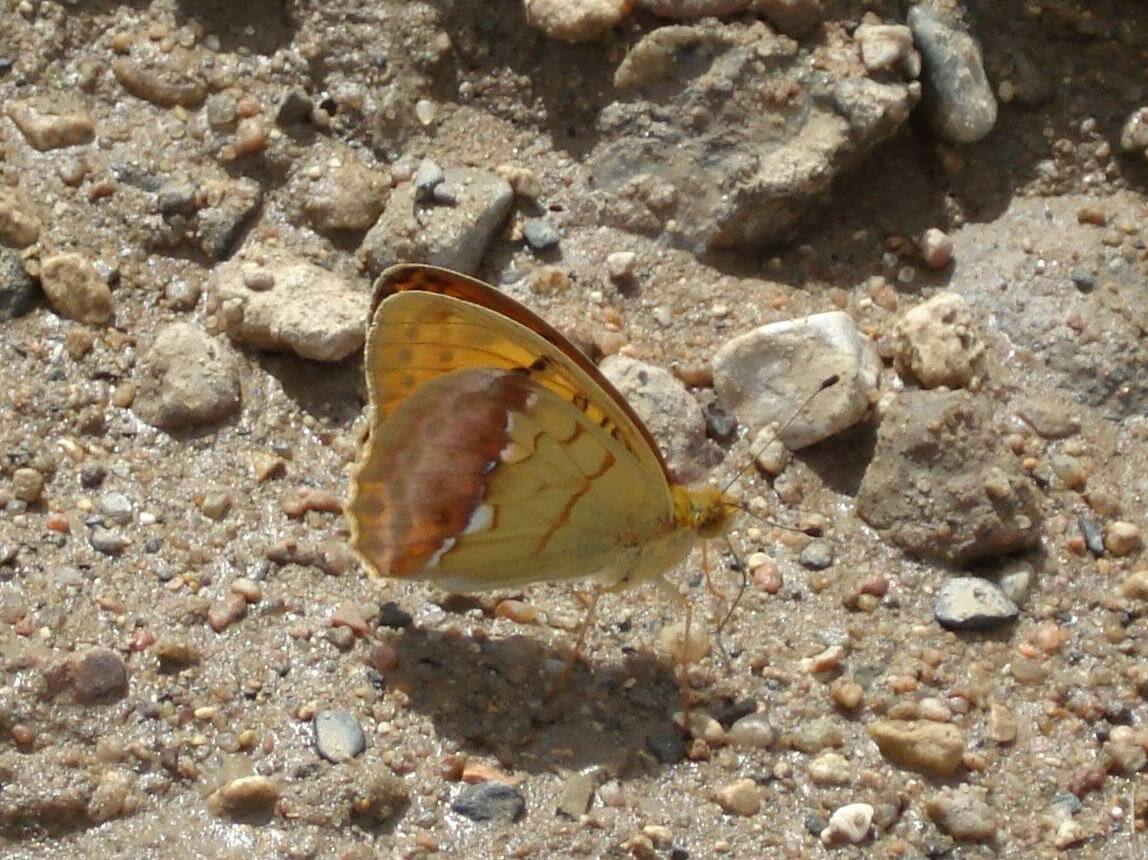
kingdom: Animalia
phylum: Arthropoda
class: Insecta
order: Lepidoptera
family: Nymphalidae
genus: Argyronome
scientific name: Argyronome laodice
